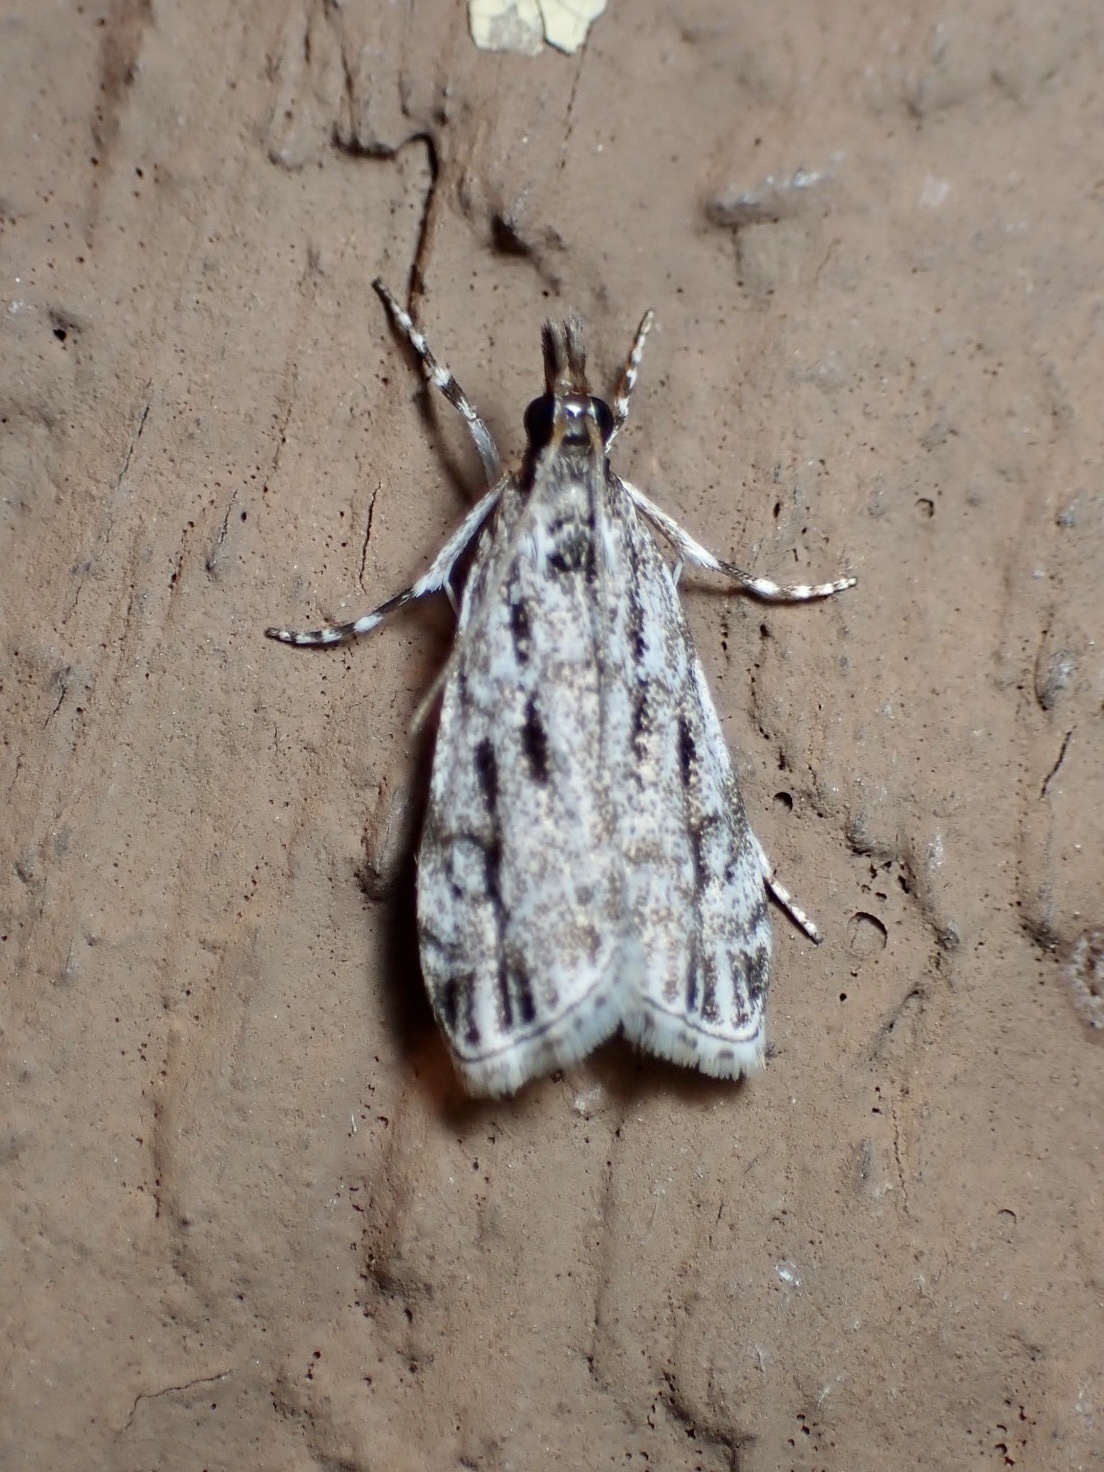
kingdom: Animalia
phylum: Arthropoda
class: Insecta
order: Lepidoptera
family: Crambidae
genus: Eudonia
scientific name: Eudonia strigalis
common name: Striped eudonia moth
